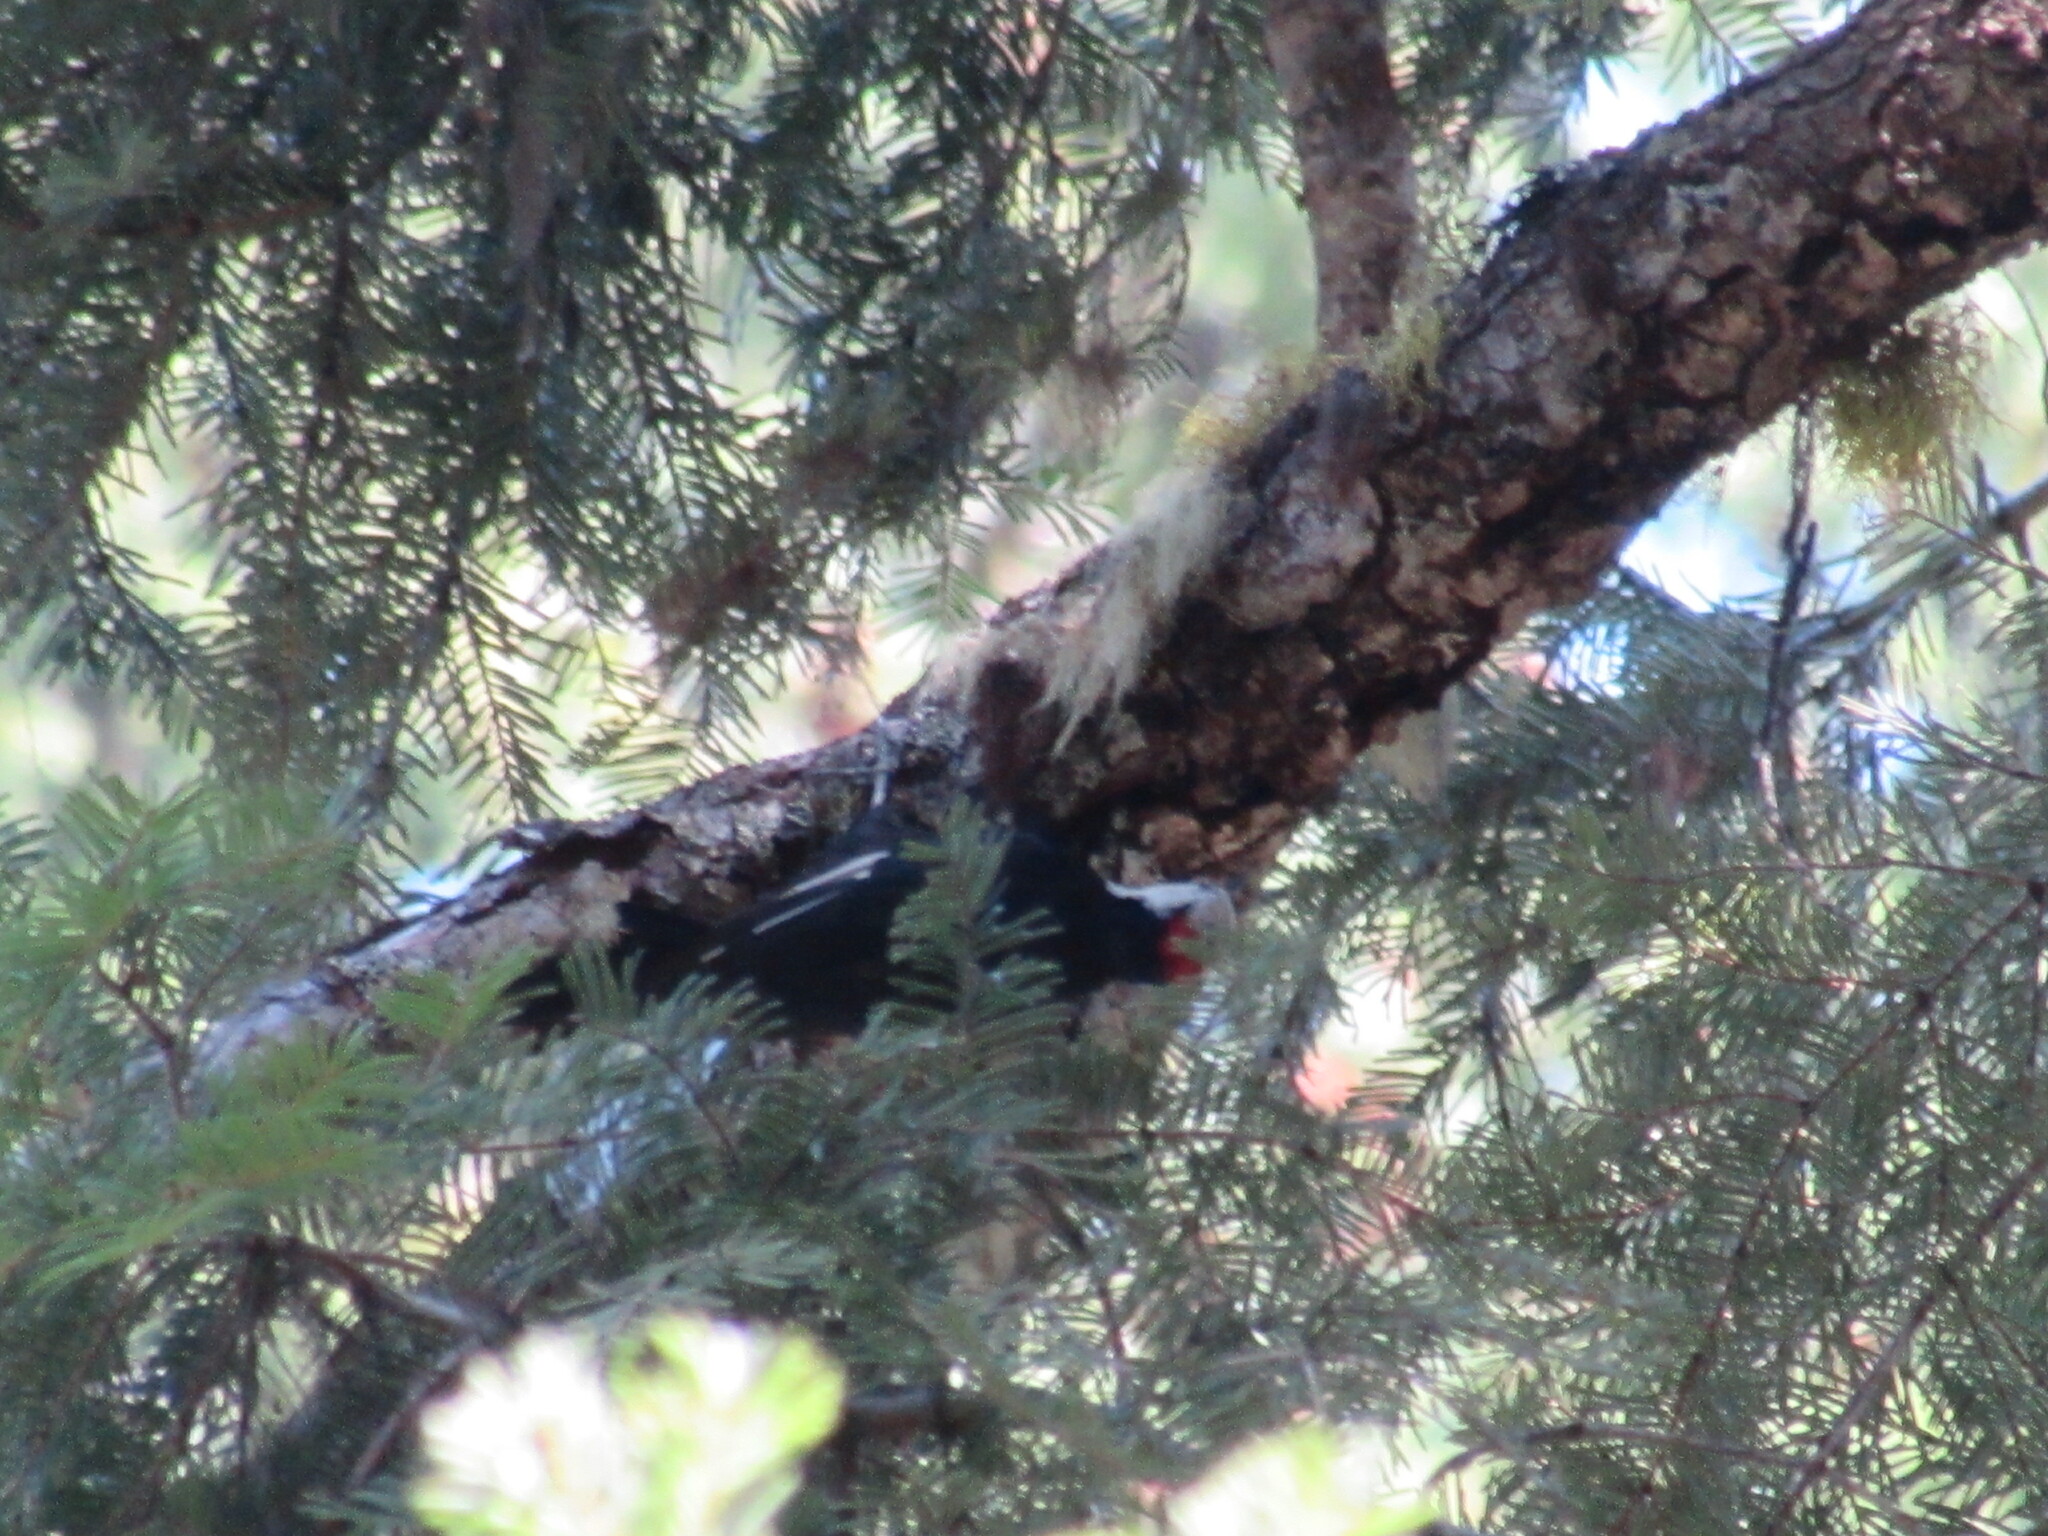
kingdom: Animalia
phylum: Chordata
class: Aves
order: Piciformes
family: Picidae
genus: Leuconotopicus
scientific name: Leuconotopicus albolarvatus
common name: White-headed woodpecker
